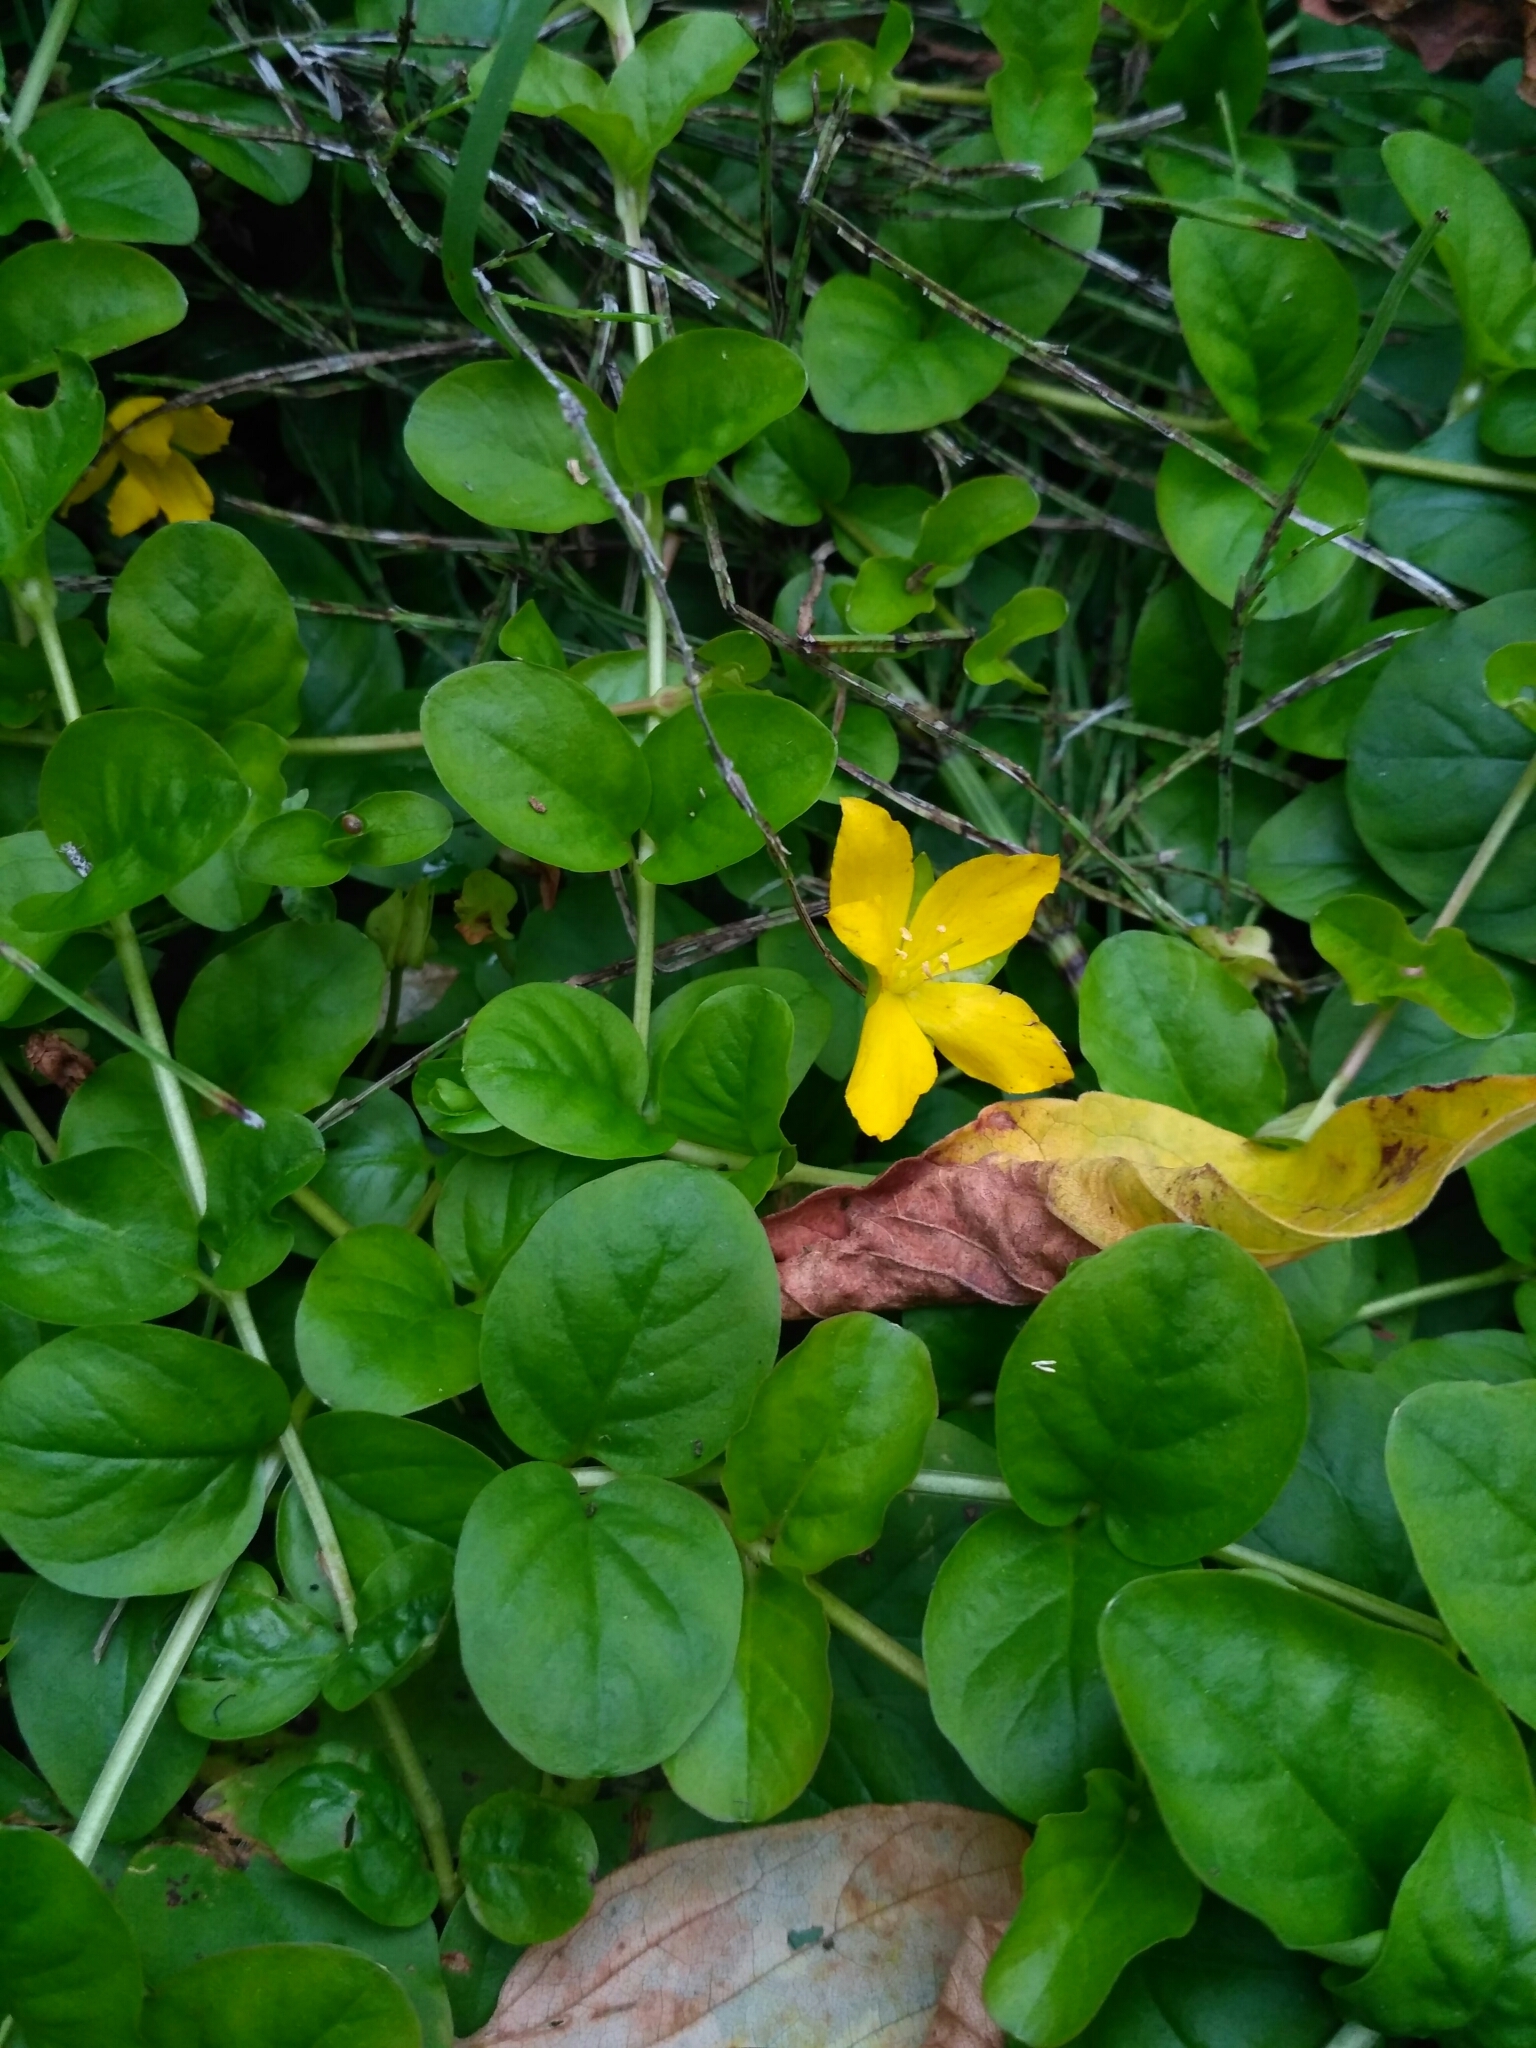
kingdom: Plantae
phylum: Tracheophyta
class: Magnoliopsida
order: Ericales
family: Primulaceae
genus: Lysimachia
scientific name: Lysimachia nummularia
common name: Moneywort
